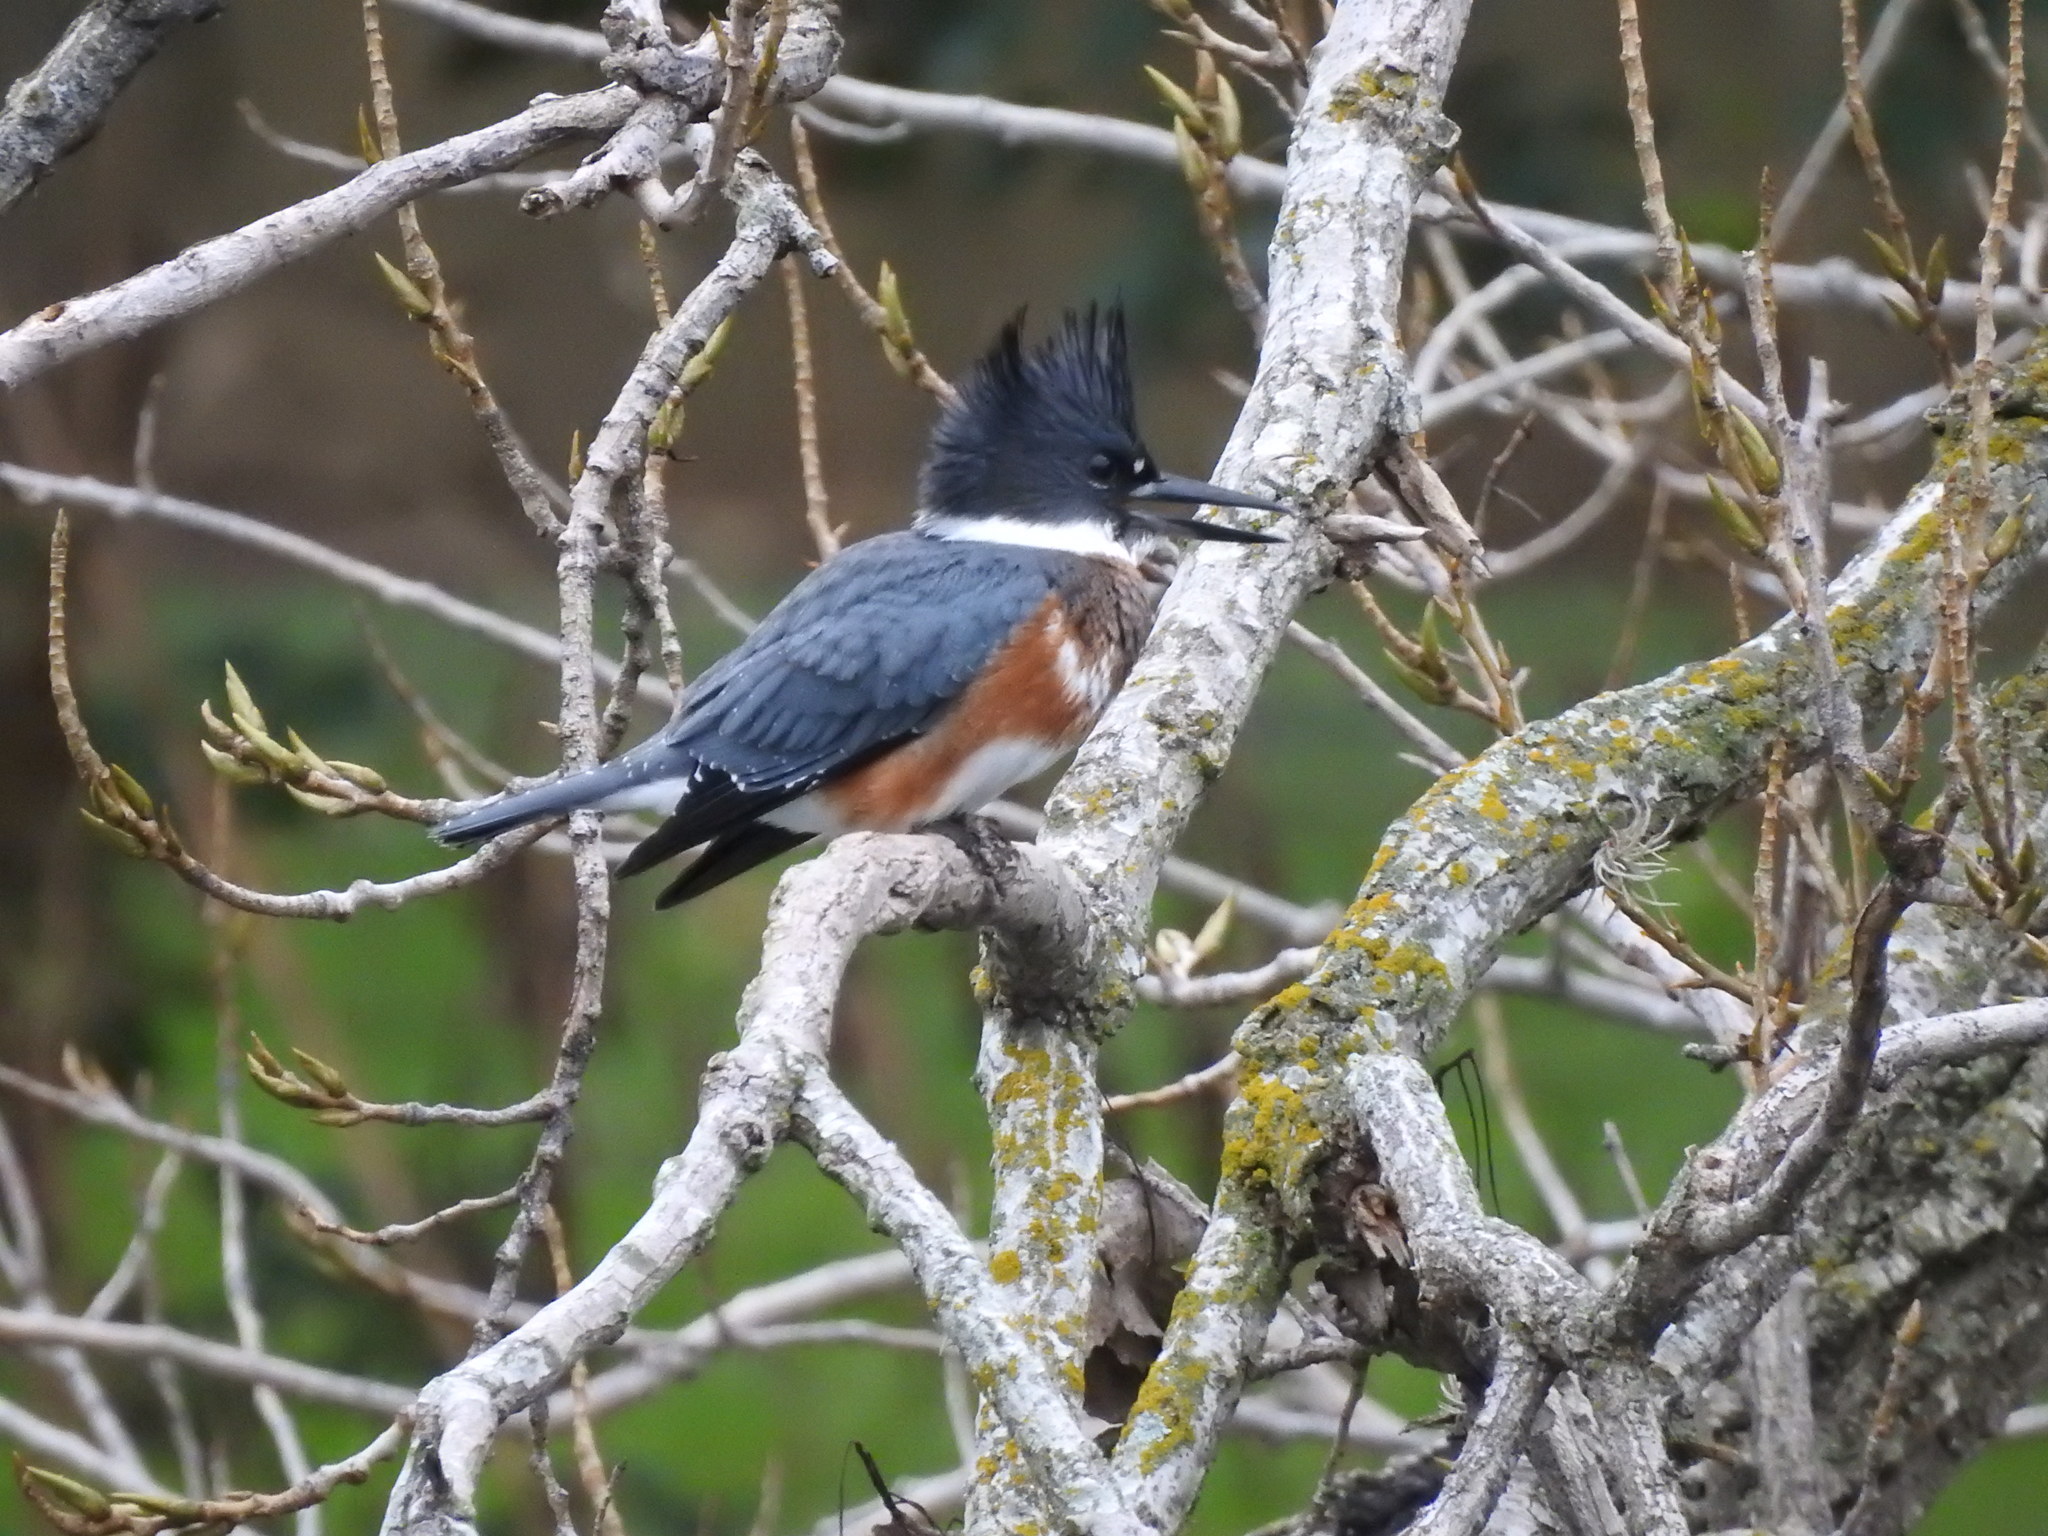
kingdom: Animalia
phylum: Chordata
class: Aves
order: Coraciiformes
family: Alcedinidae
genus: Megaceryle
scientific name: Megaceryle alcyon
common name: Belted kingfisher
